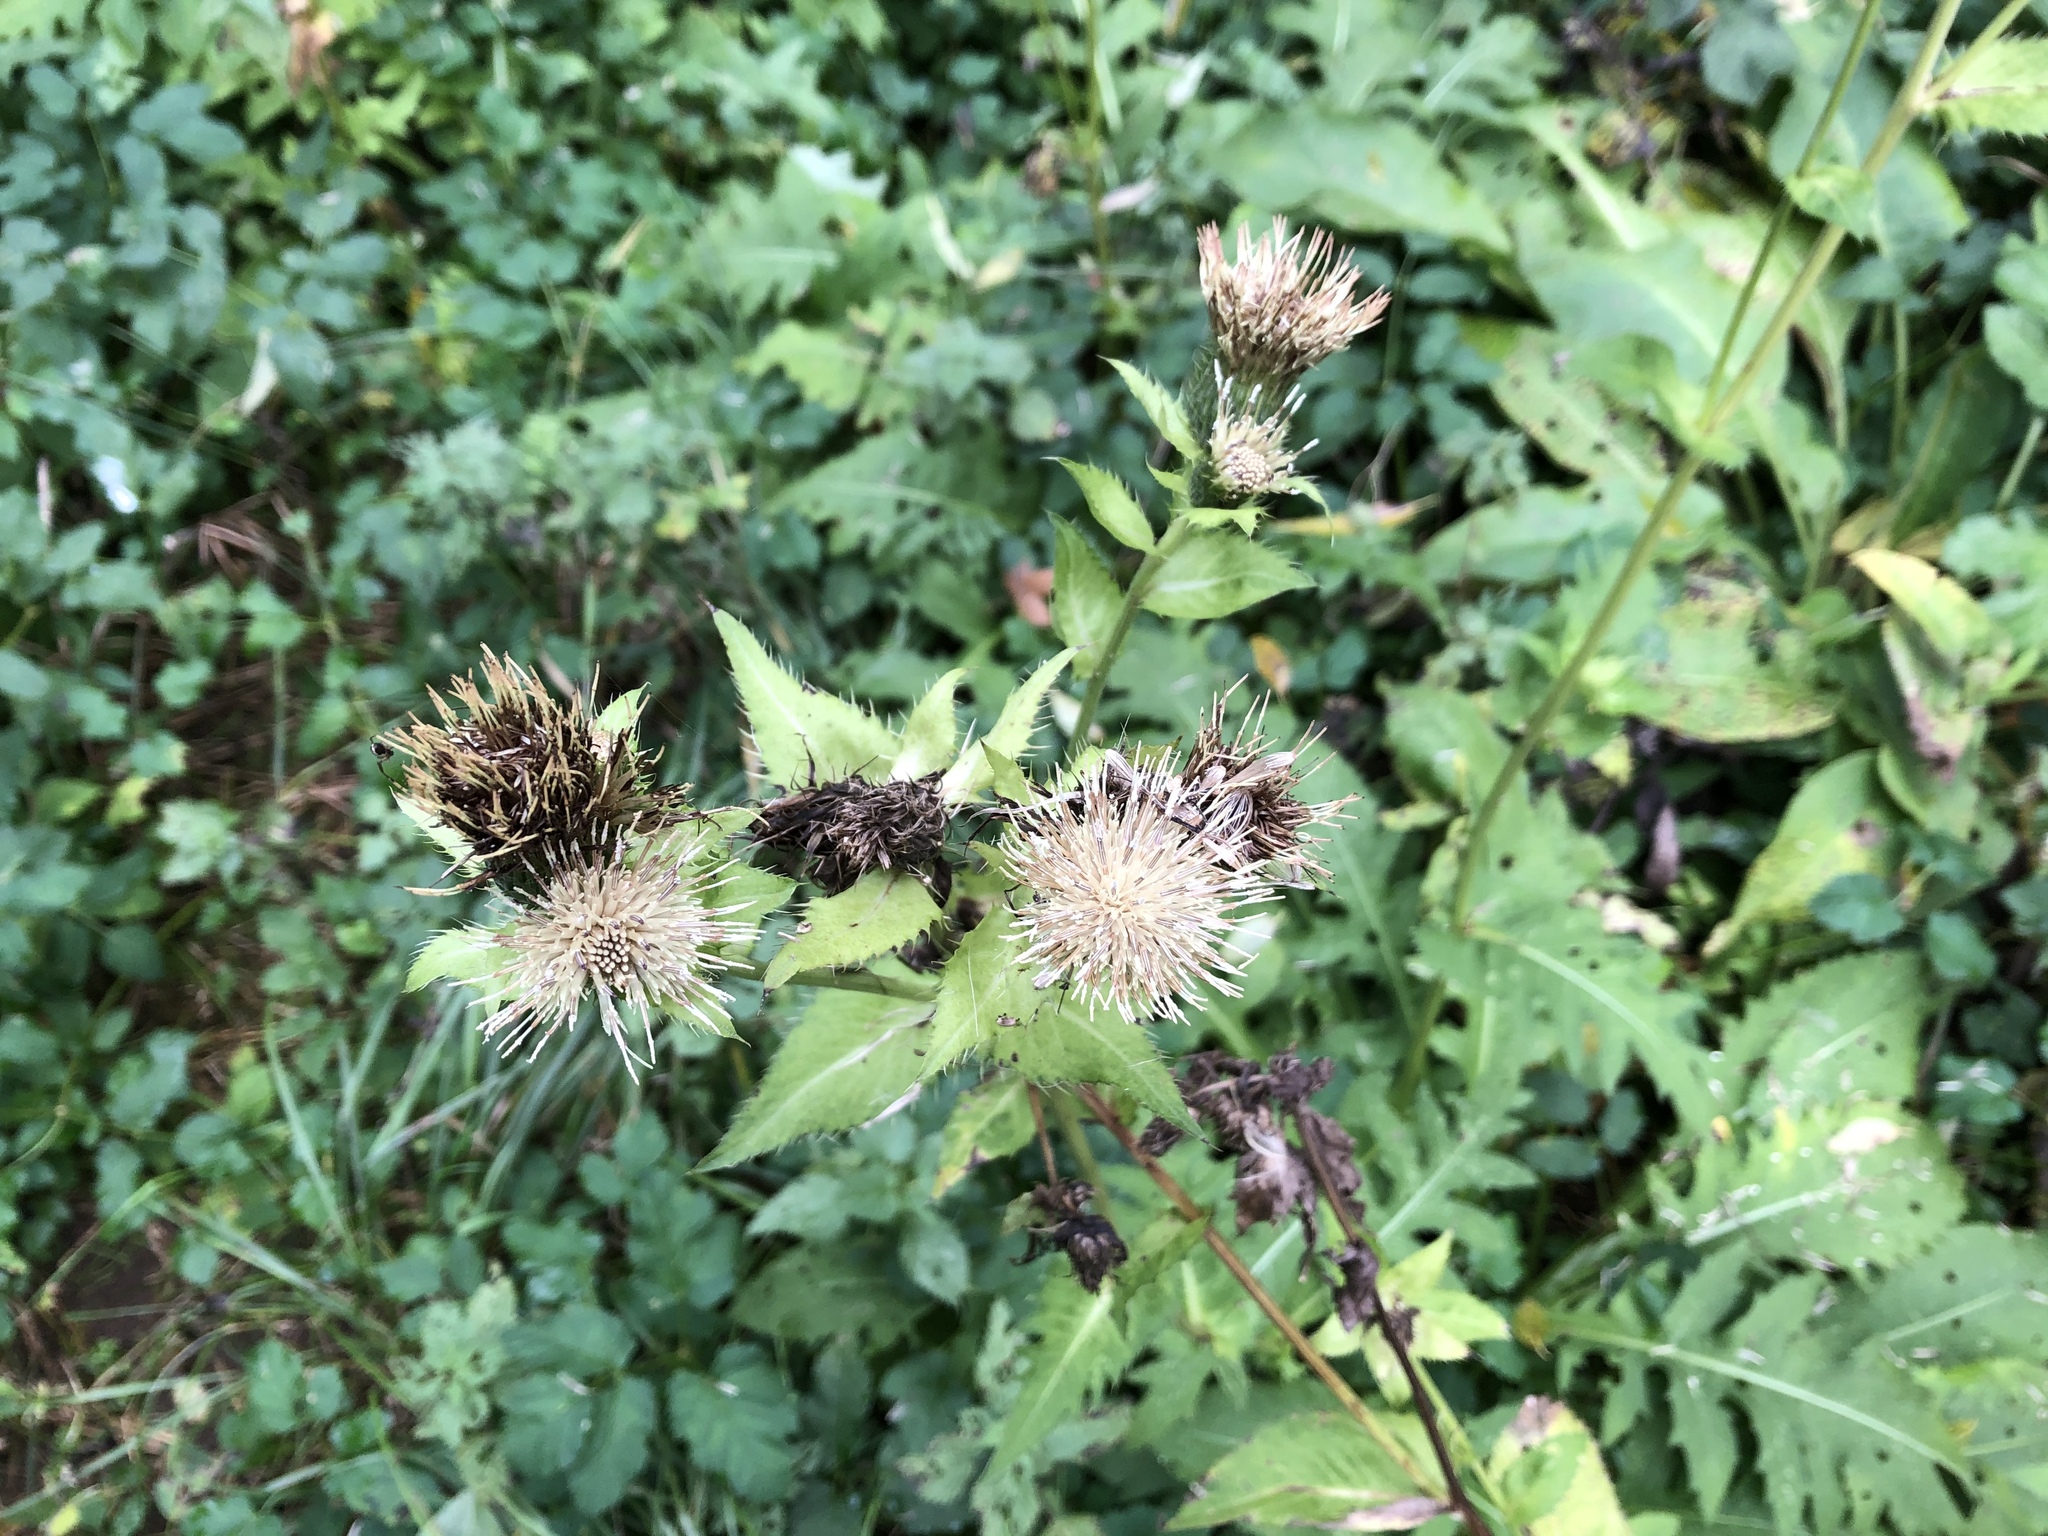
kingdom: Plantae
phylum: Tracheophyta
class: Magnoliopsida
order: Asterales
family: Asteraceae
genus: Cirsium
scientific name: Cirsium oleraceum
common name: Cabbage thistle
